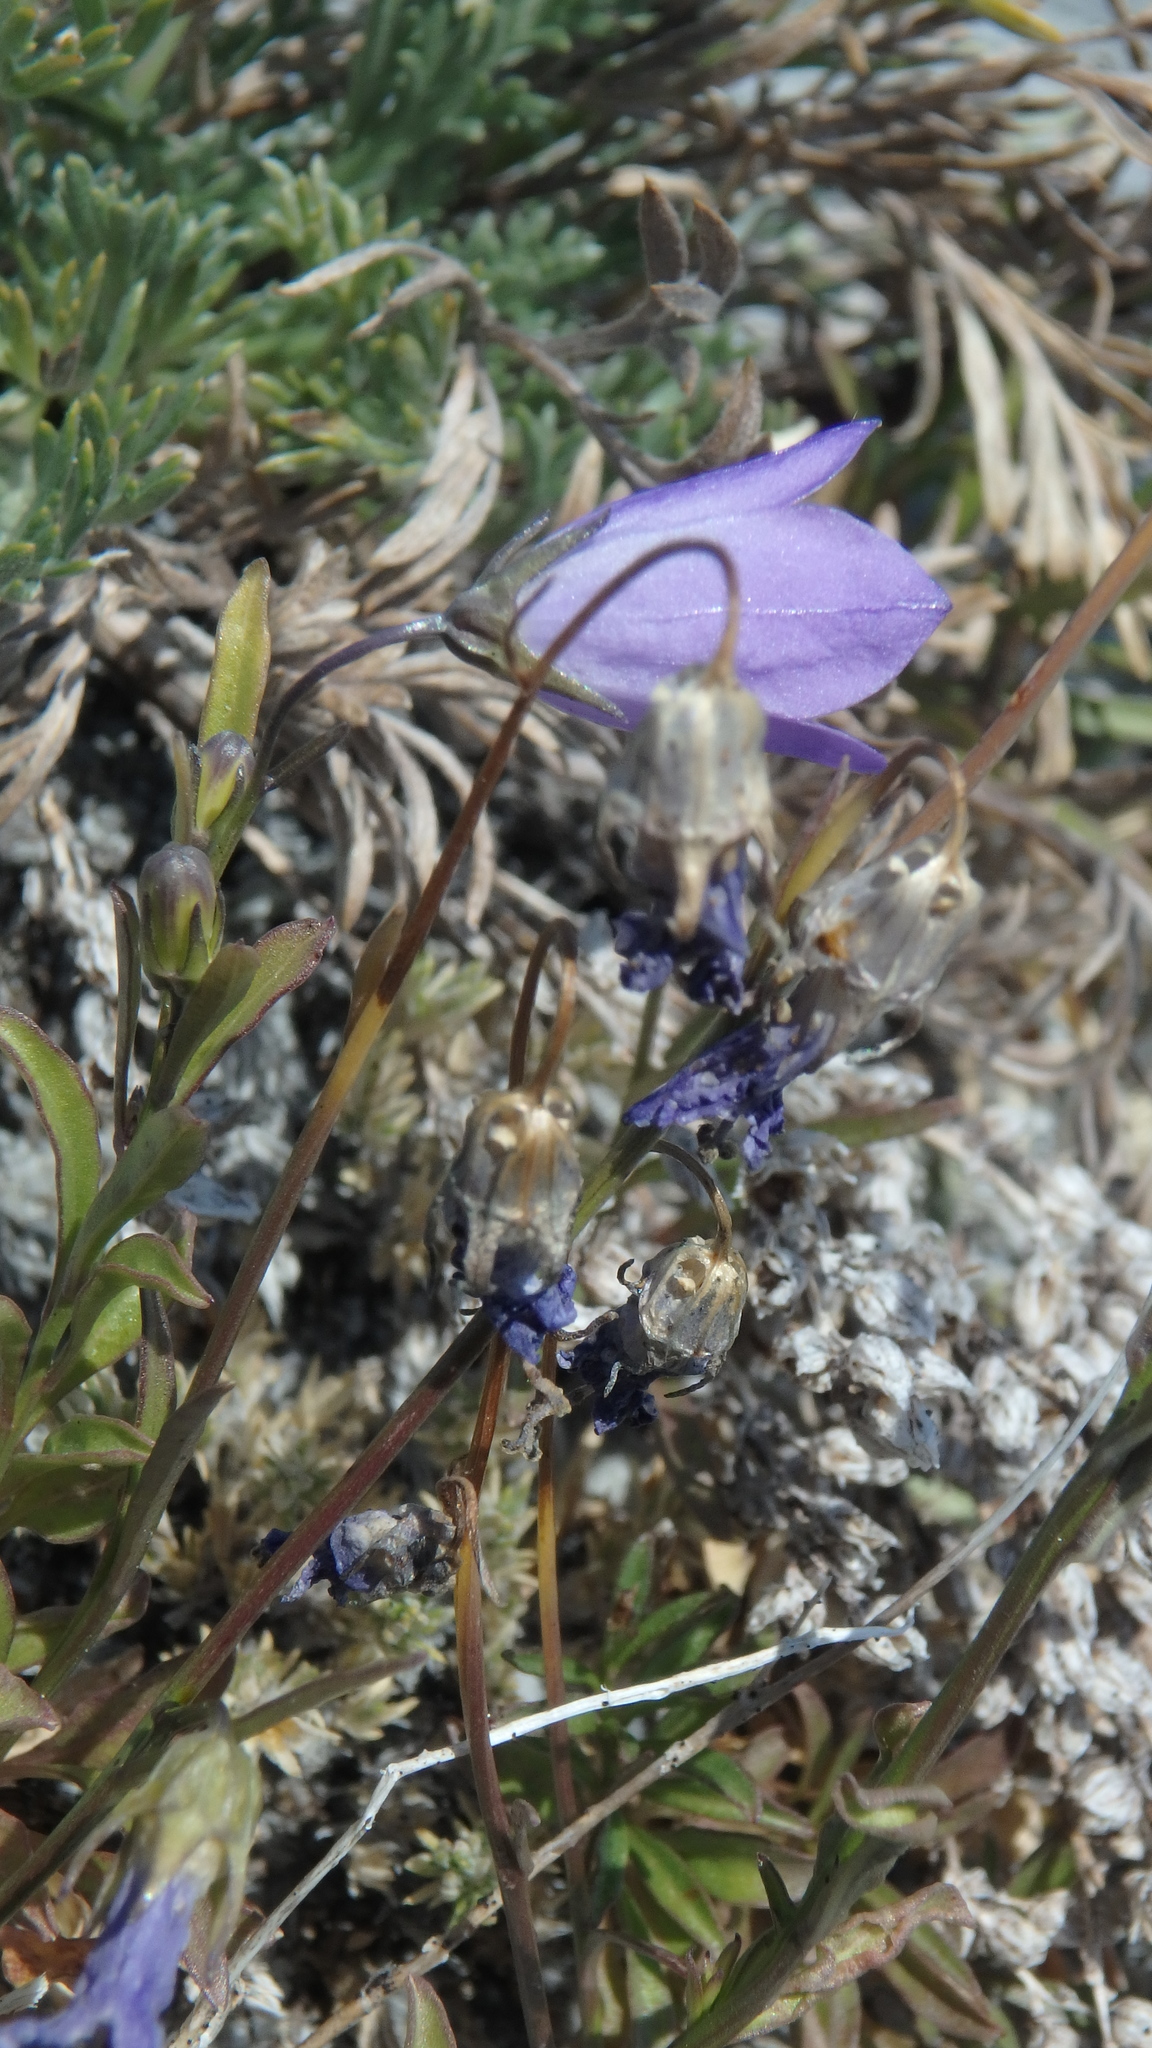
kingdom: Plantae
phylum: Tracheophyta
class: Magnoliopsida
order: Asterales
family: Campanulaceae
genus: Campanula
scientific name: Campanula petiolata
